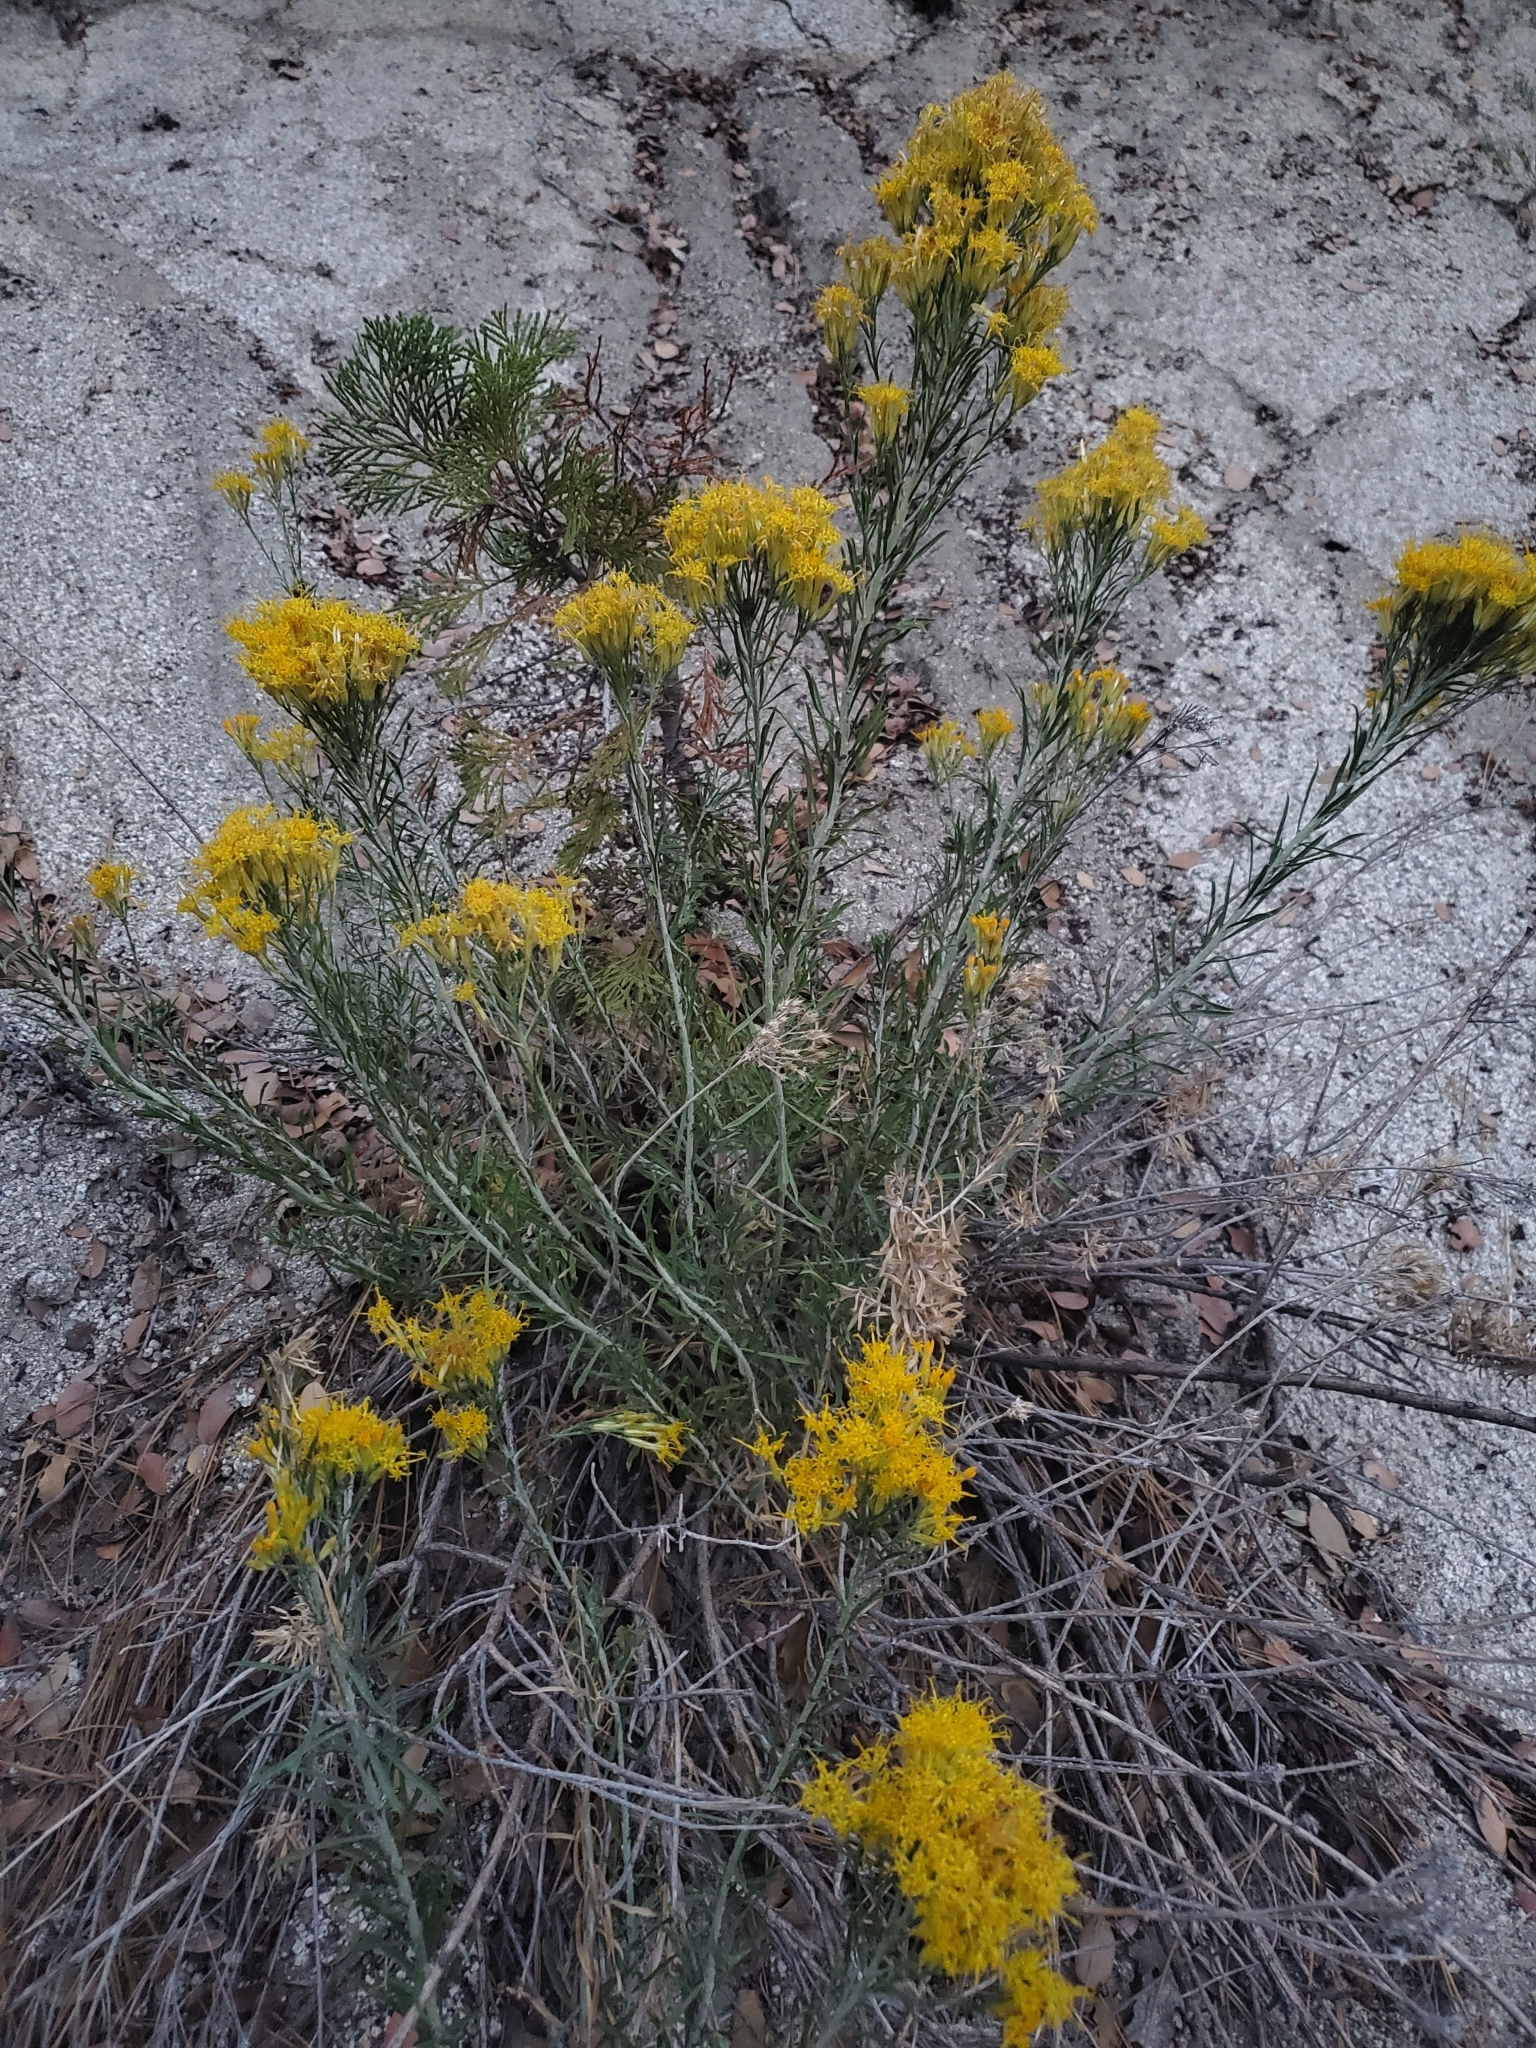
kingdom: Plantae
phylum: Tracheophyta
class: Magnoliopsida
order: Asterales
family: Asteraceae
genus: Ericameria
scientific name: Ericameria nauseosa
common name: Rubber rabbitbrush
